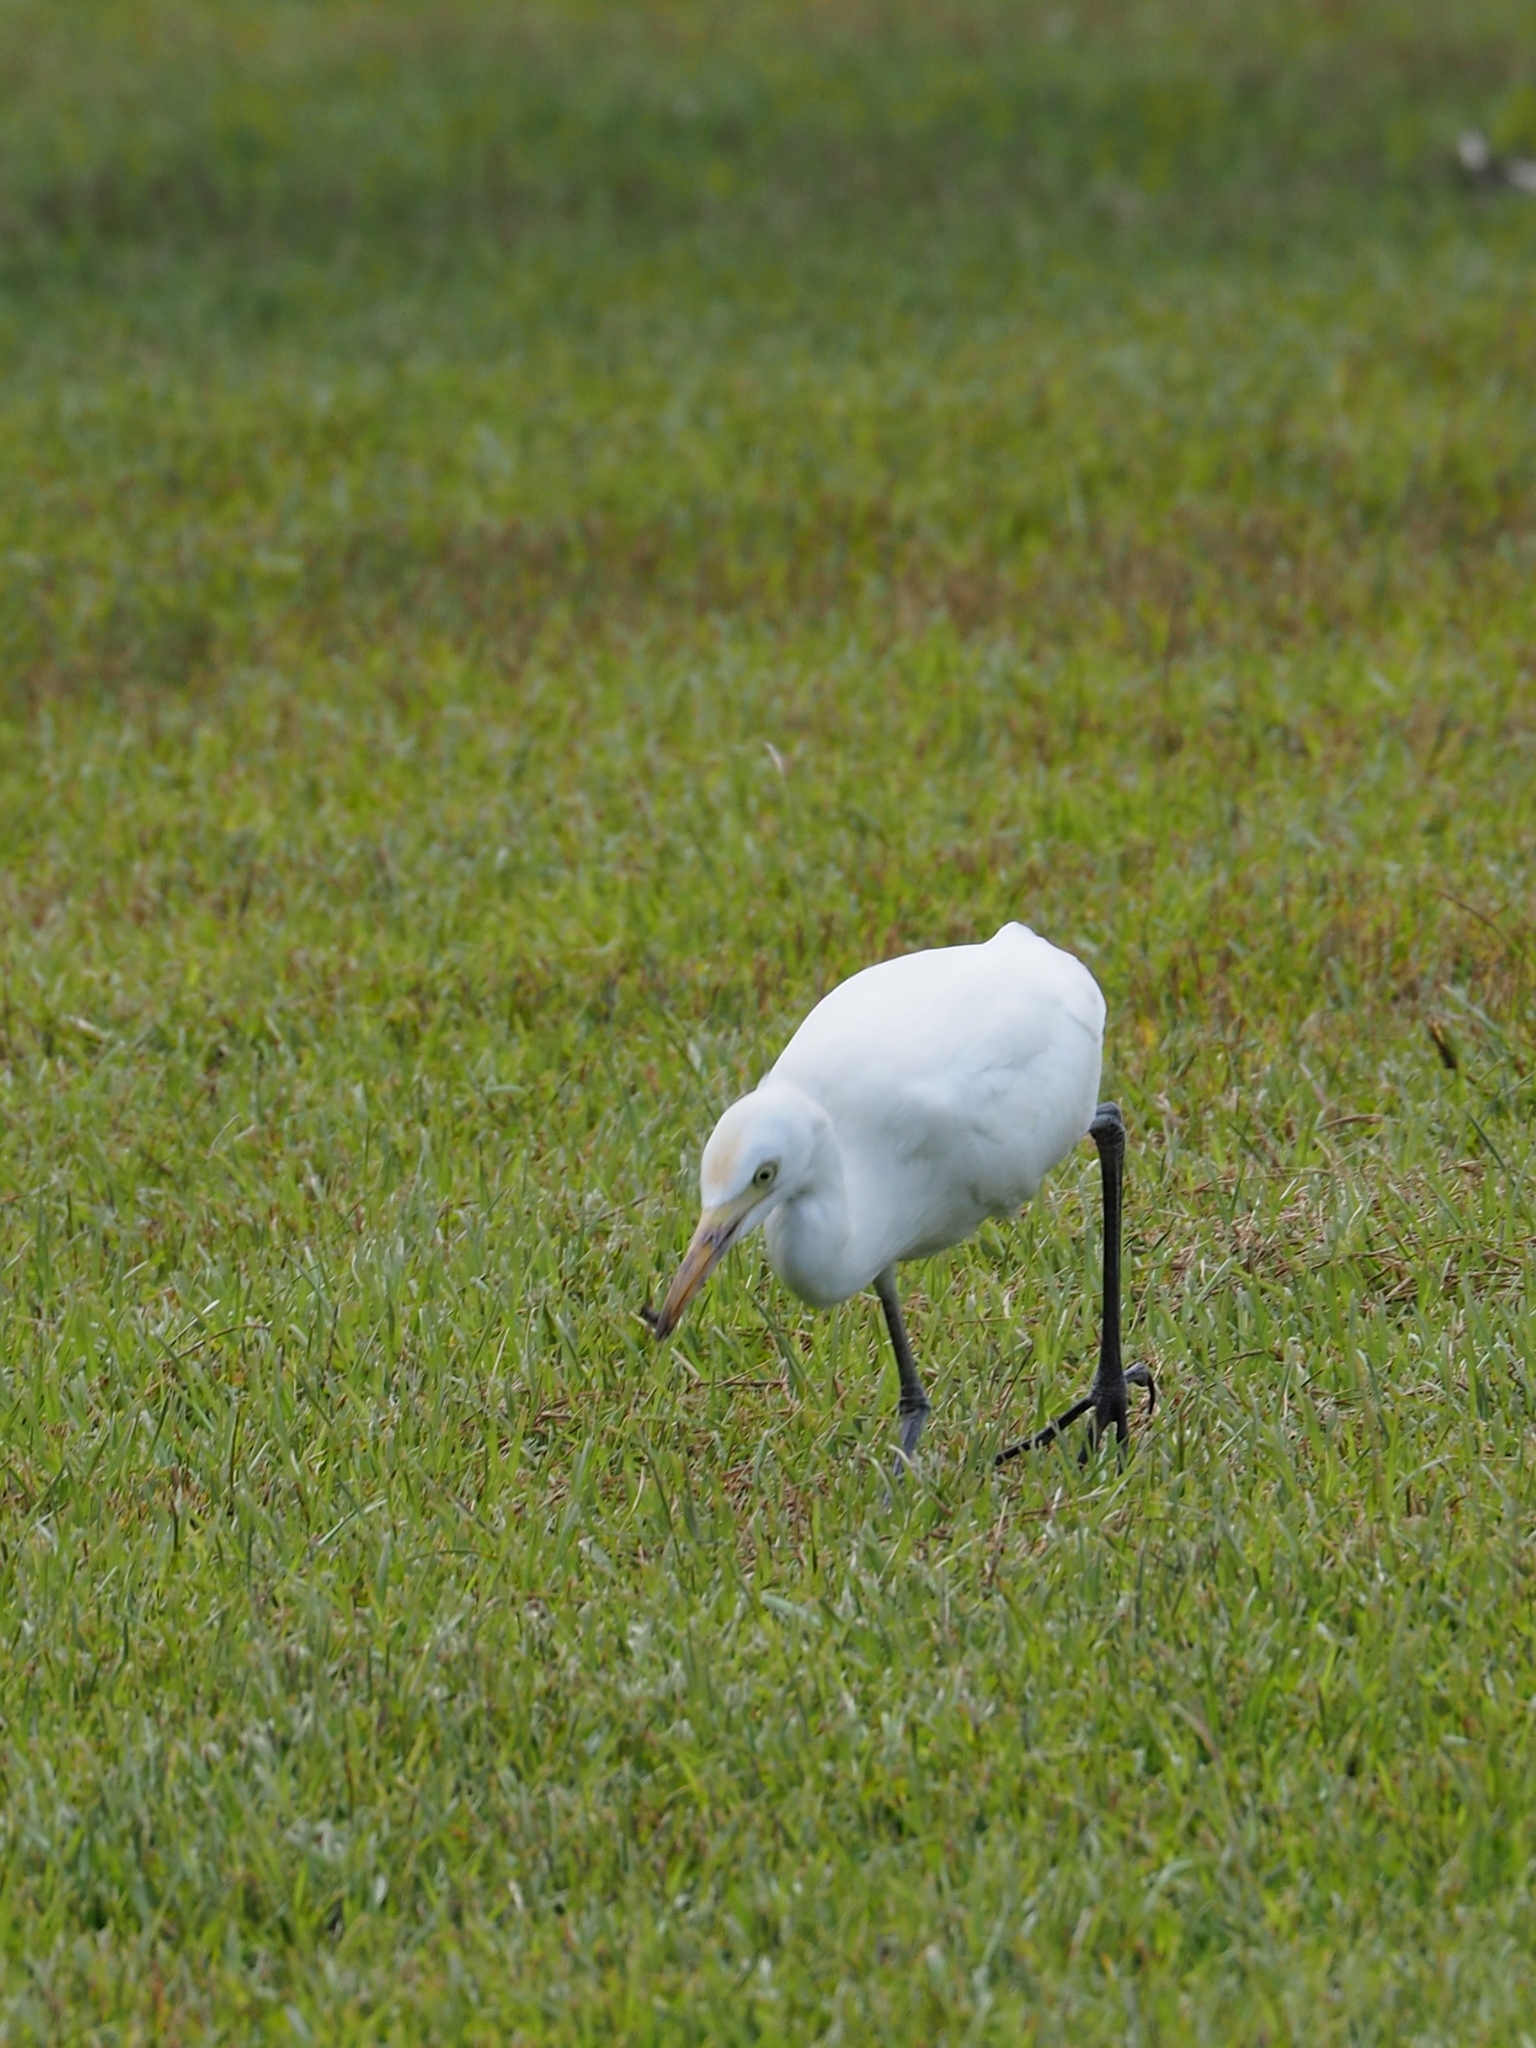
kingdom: Animalia
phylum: Chordata
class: Aves
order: Pelecaniformes
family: Ardeidae
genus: Bubulcus
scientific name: Bubulcus coromandus
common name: Eastern cattle egret
